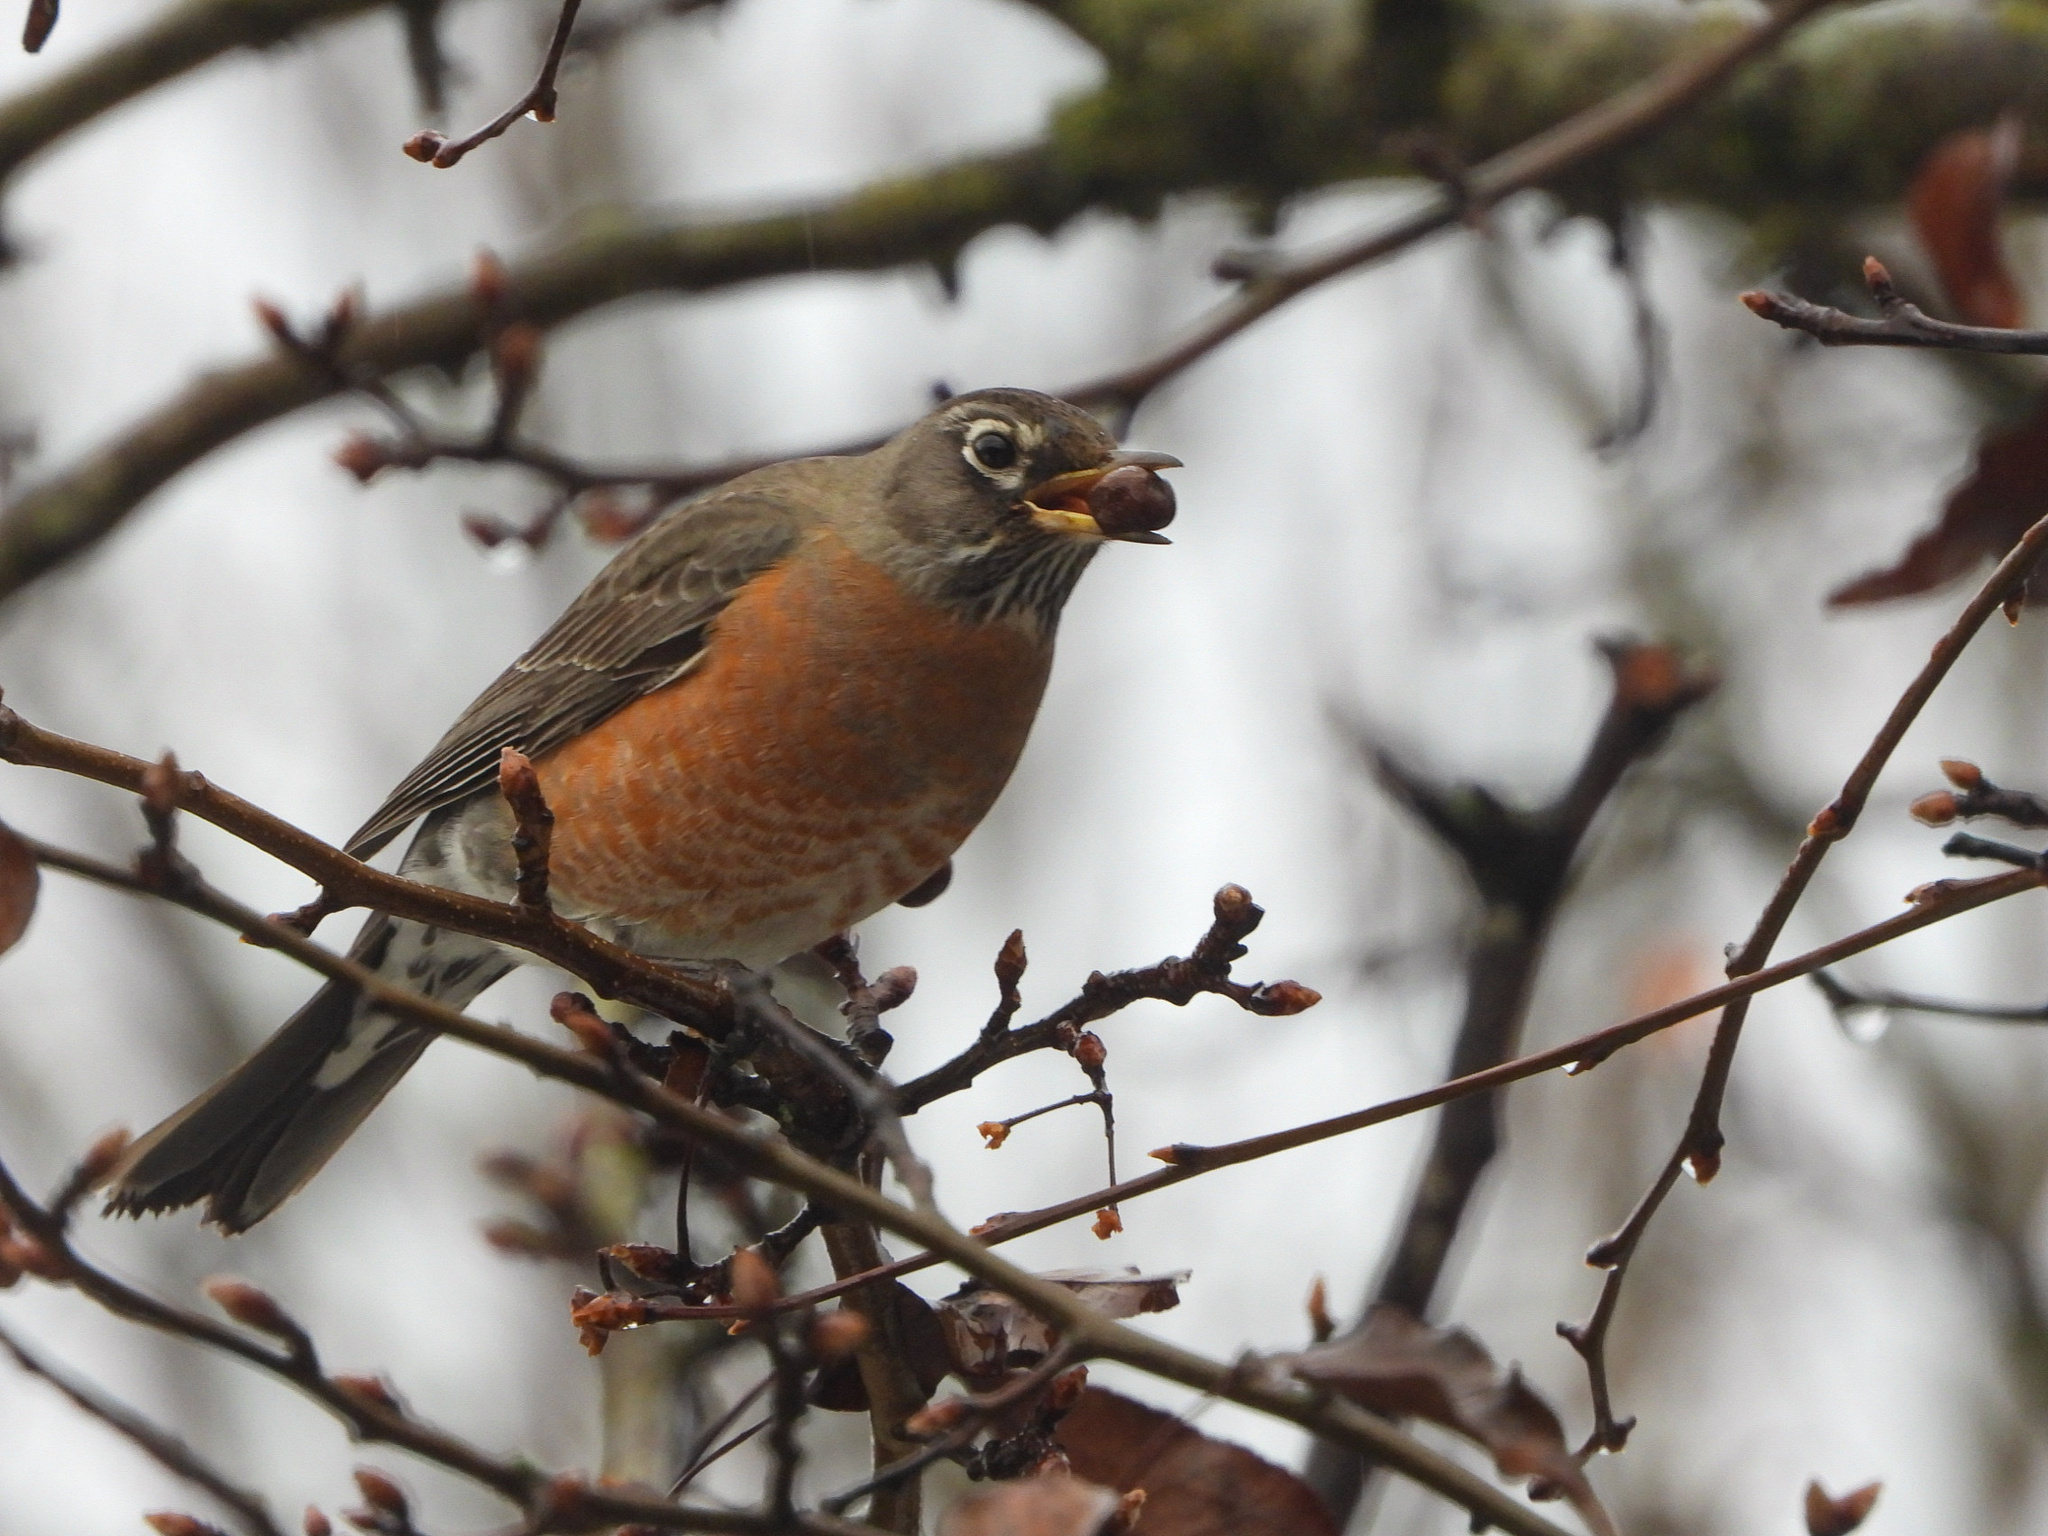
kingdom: Animalia
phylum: Chordata
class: Aves
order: Passeriformes
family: Turdidae
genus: Turdus
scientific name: Turdus migratorius
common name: American robin
